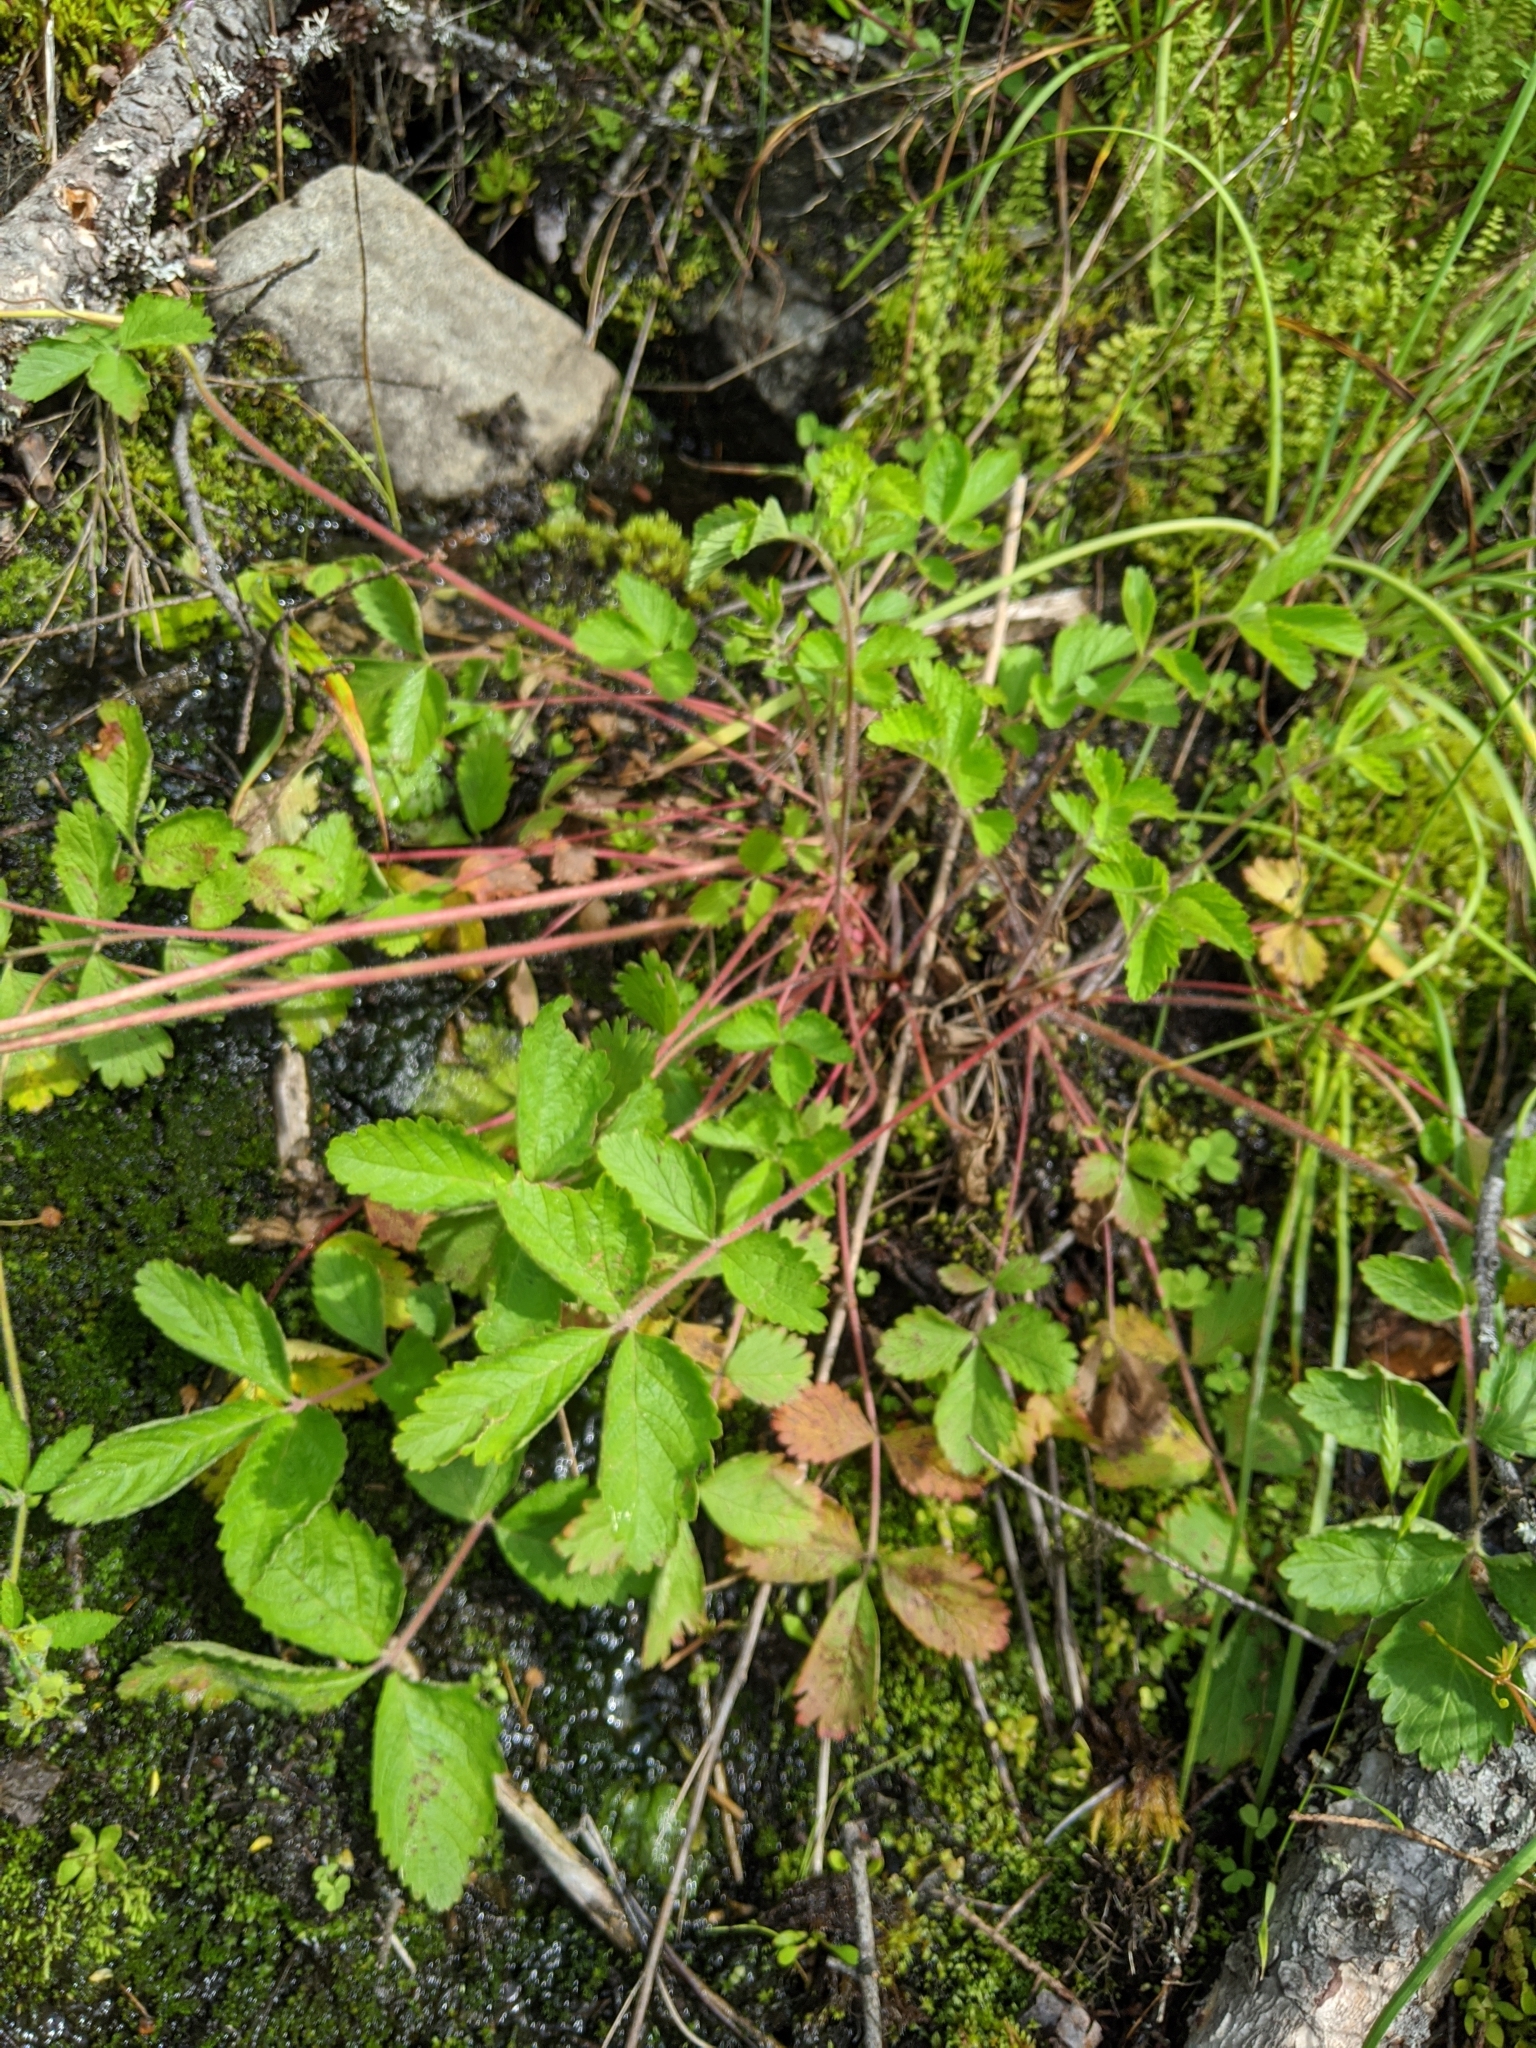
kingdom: Plantae
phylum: Tracheophyta
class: Magnoliopsida
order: Rosales
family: Rosaceae
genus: Drymocallis
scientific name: Drymocallis glandulosa
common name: Sticky cinquefoil
